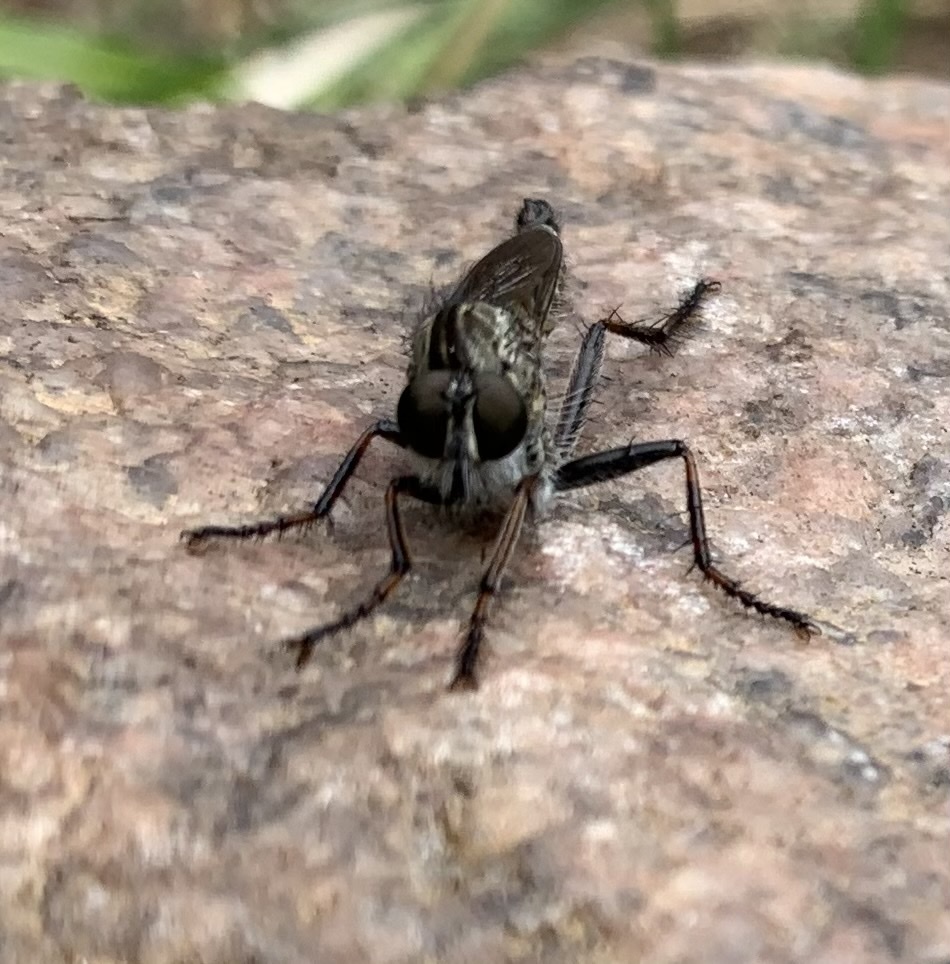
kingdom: Animalia
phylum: Arthropoda
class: Insecta
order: Diptera
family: Asilidae
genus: Machimus
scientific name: Machimus atricapillus
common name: Kite-tailed robberfly
